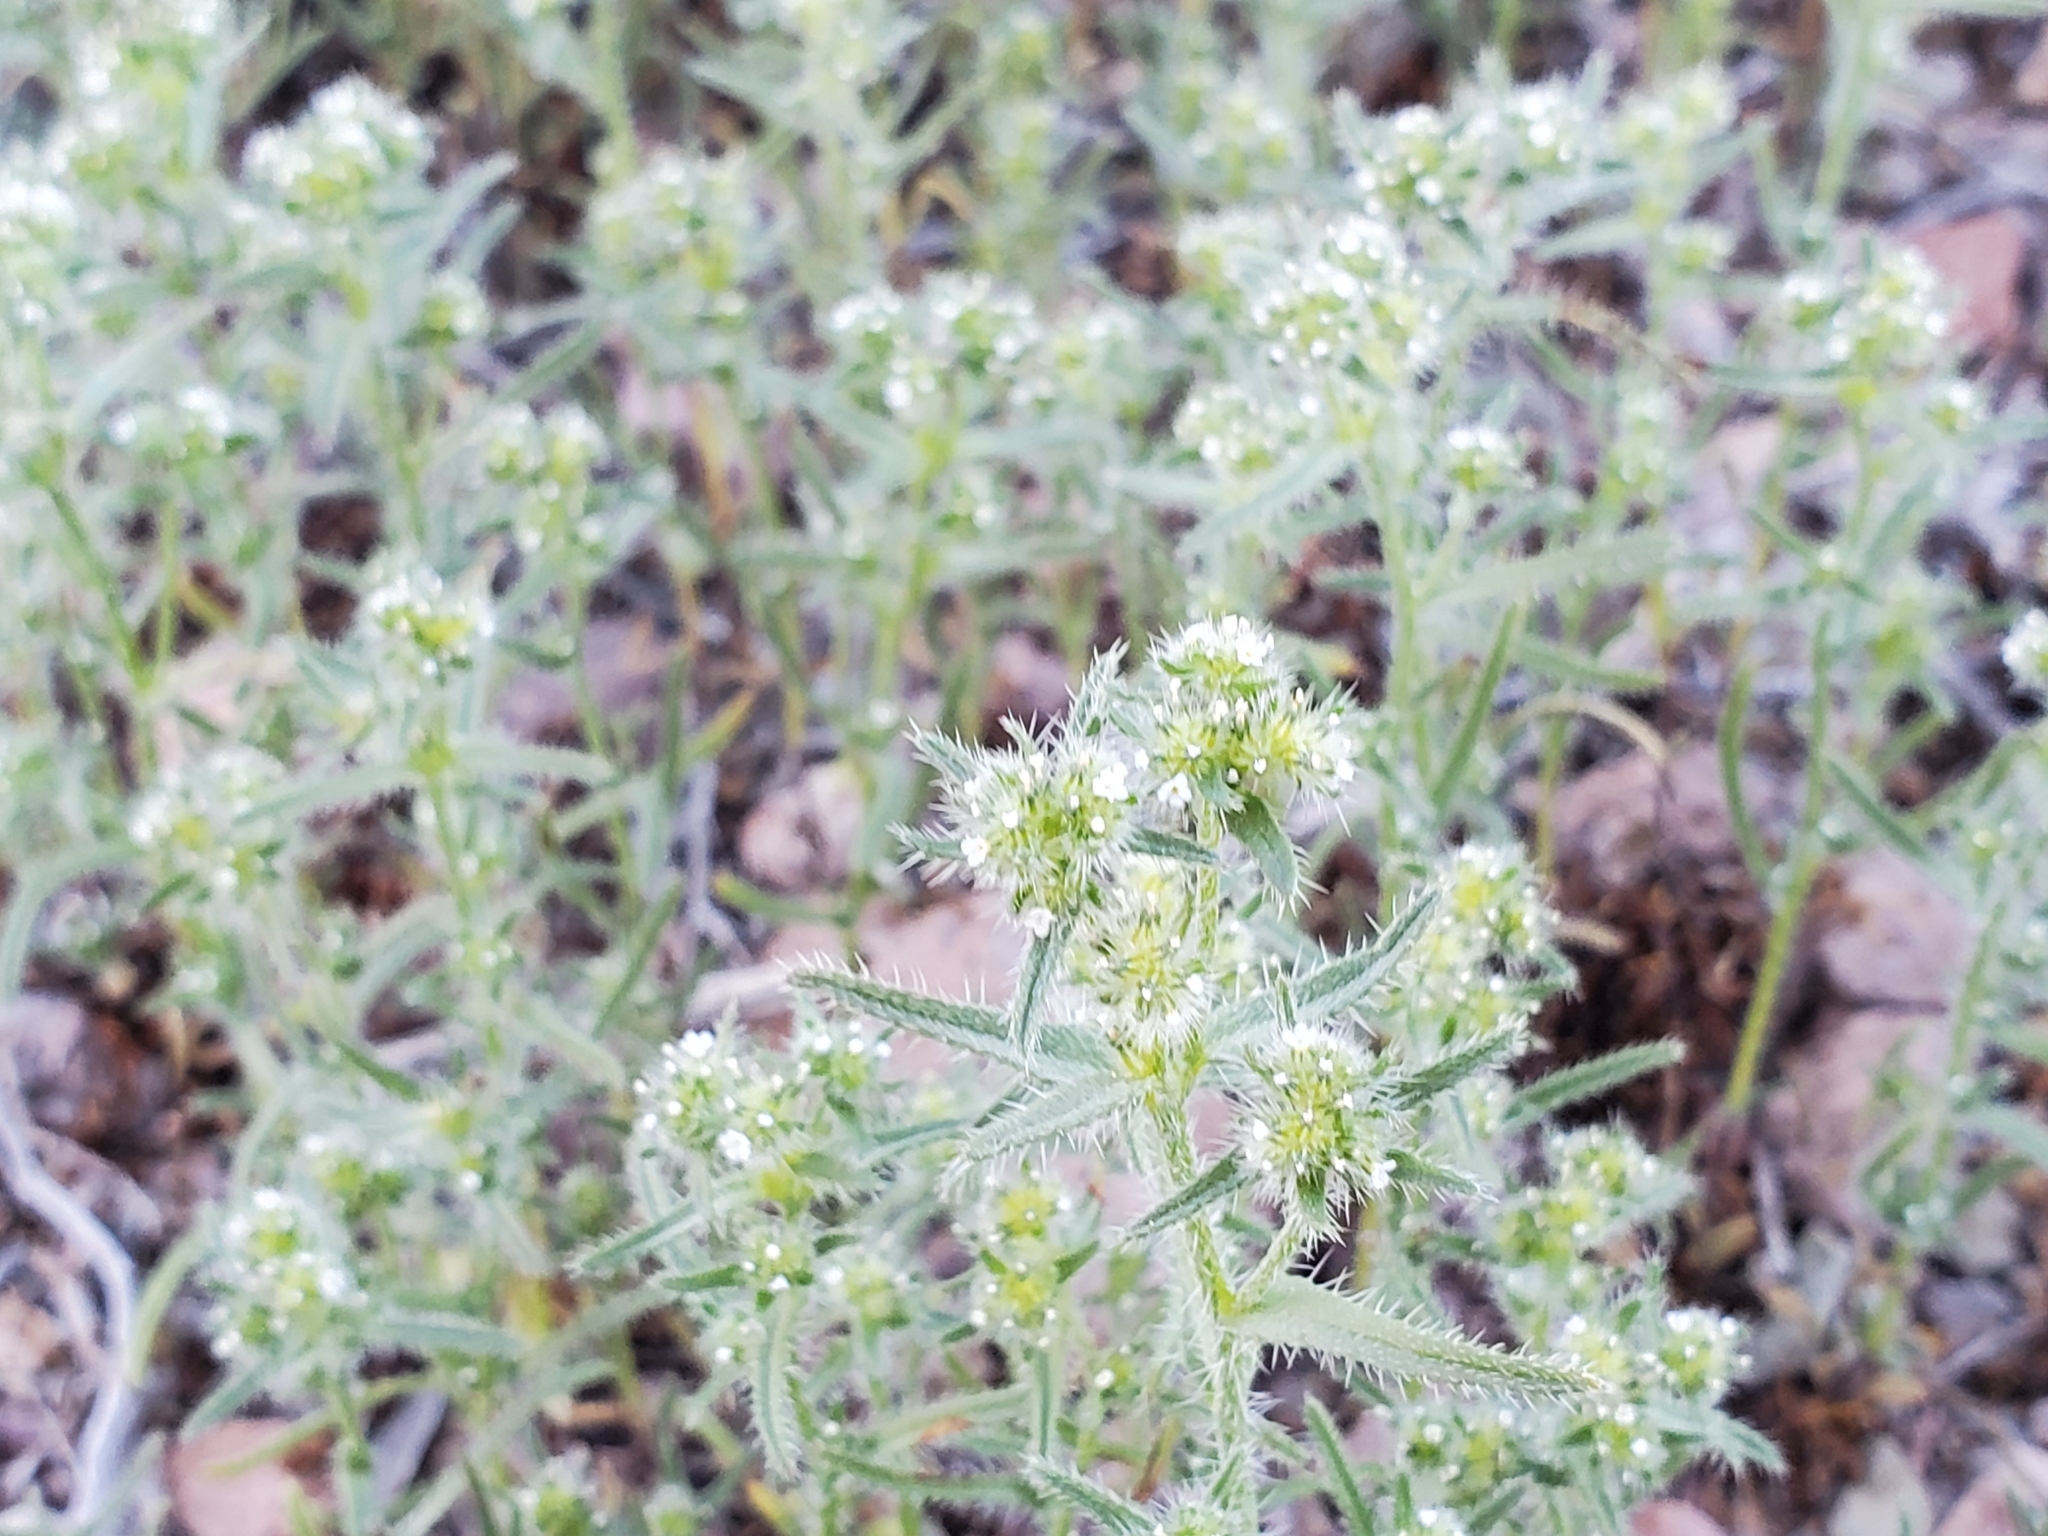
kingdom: Plantae
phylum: Tracheophyta
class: Magnoliopsida
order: Boraginales
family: Boraginaceae
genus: Cryptantha
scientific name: Cryptantha maritima
